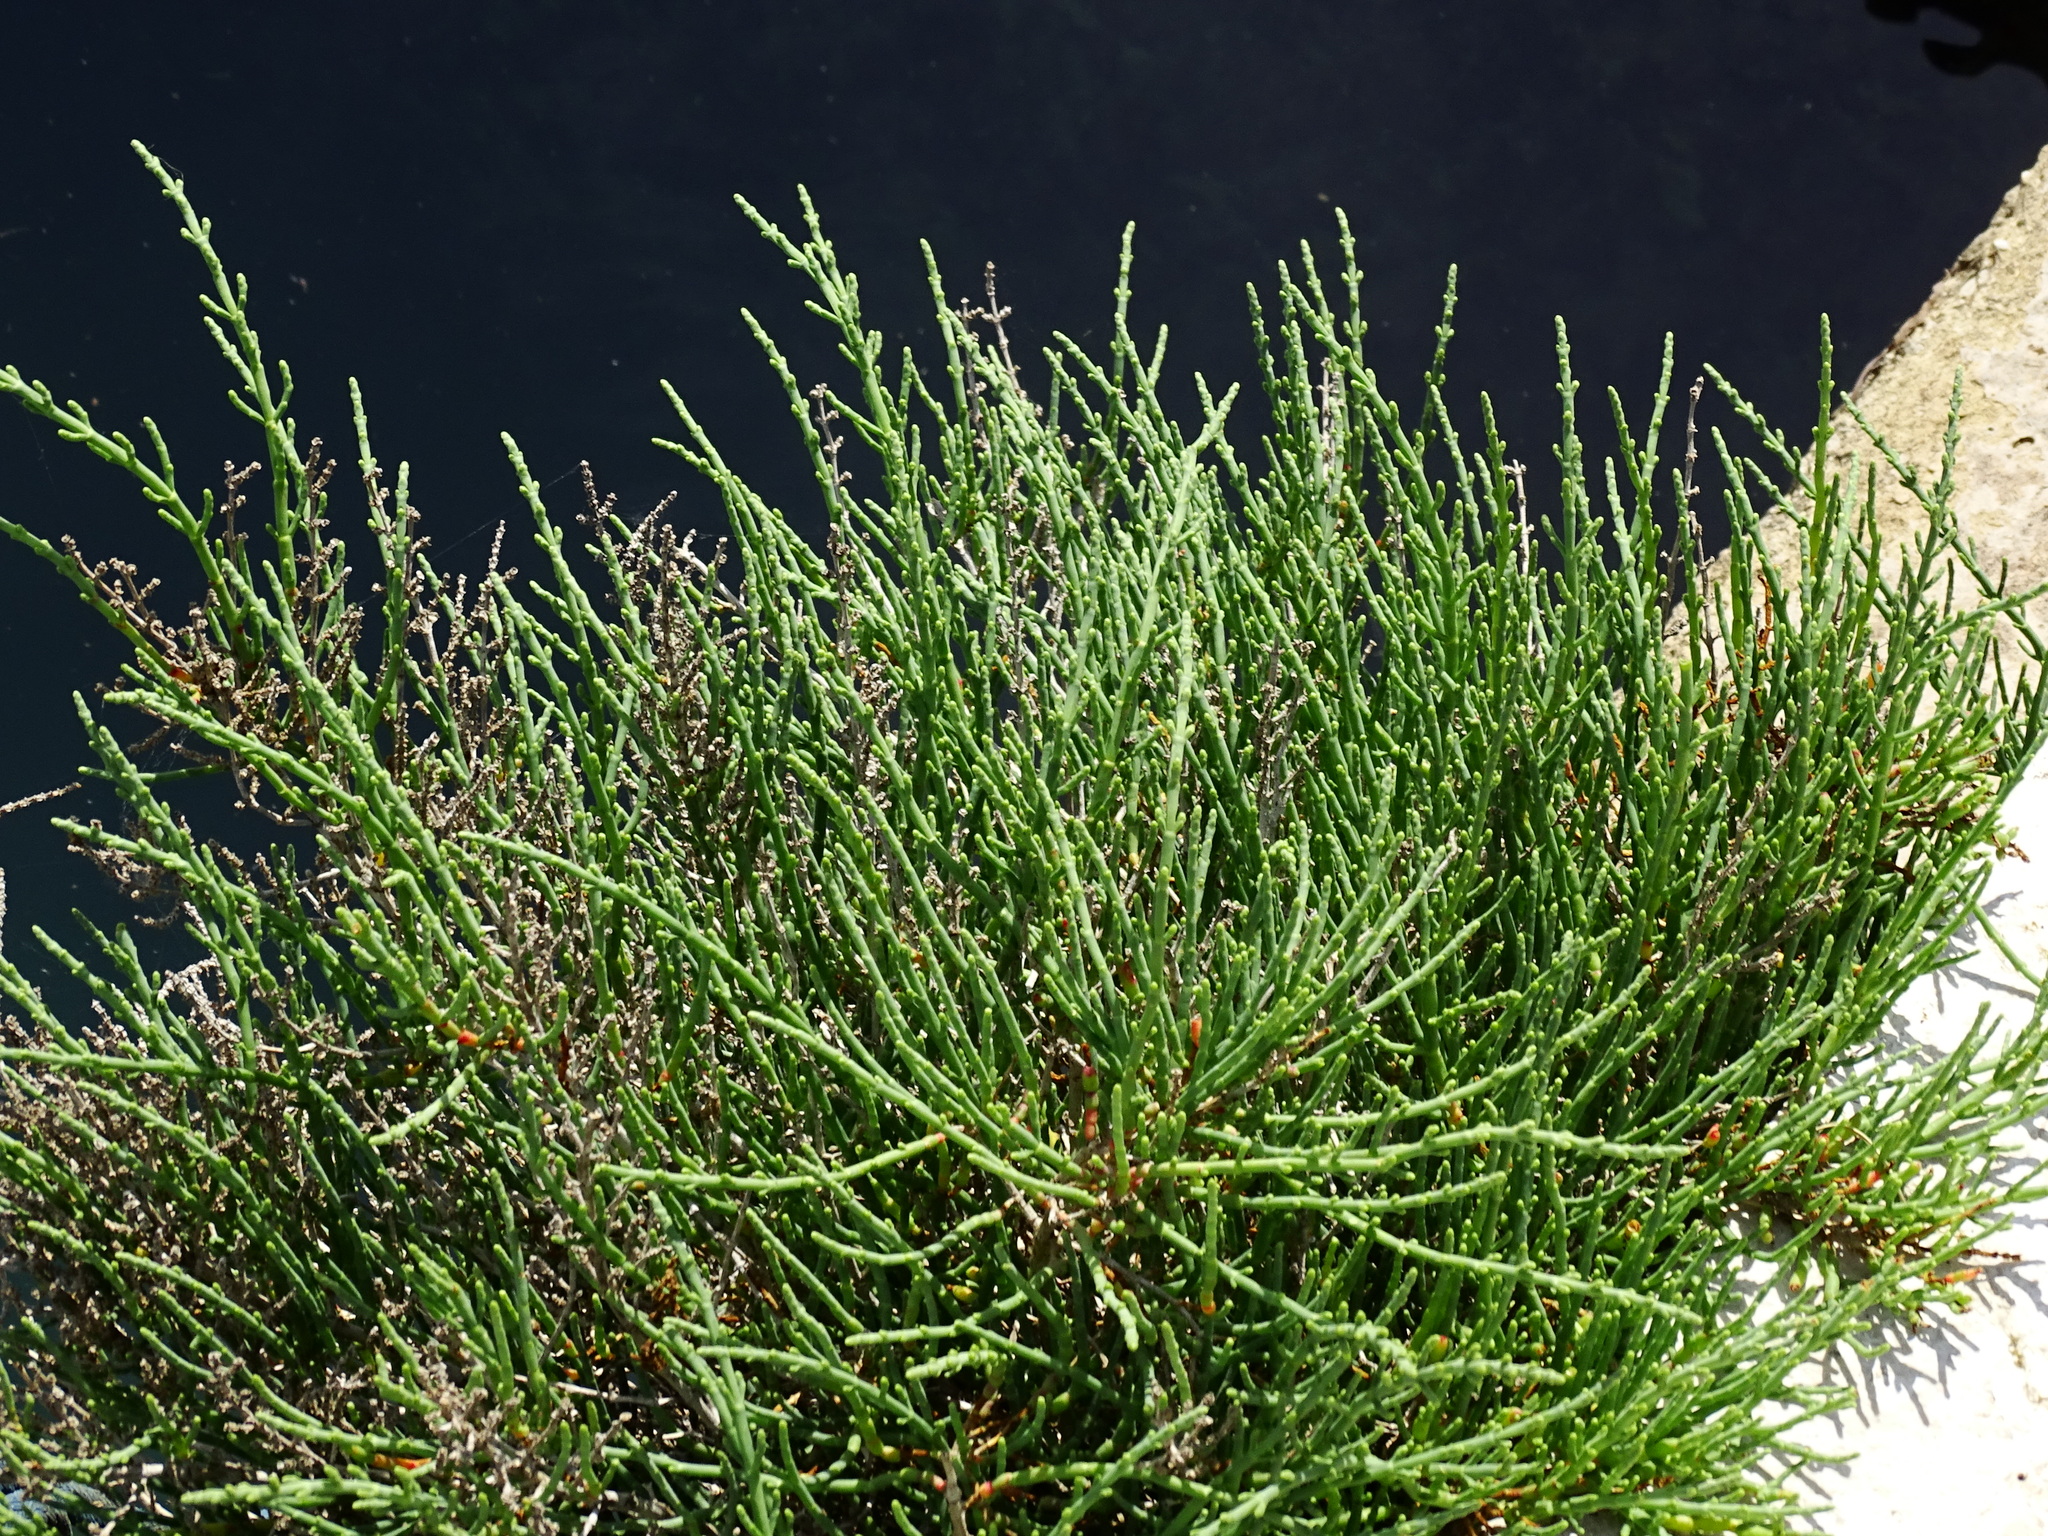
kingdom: Plantae
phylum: Tracheophyta
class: Magnoliopsida
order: Caryophyllales
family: Amaranthaceae
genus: Arthrocaulon
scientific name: Arthrocaulon macrostachyum
